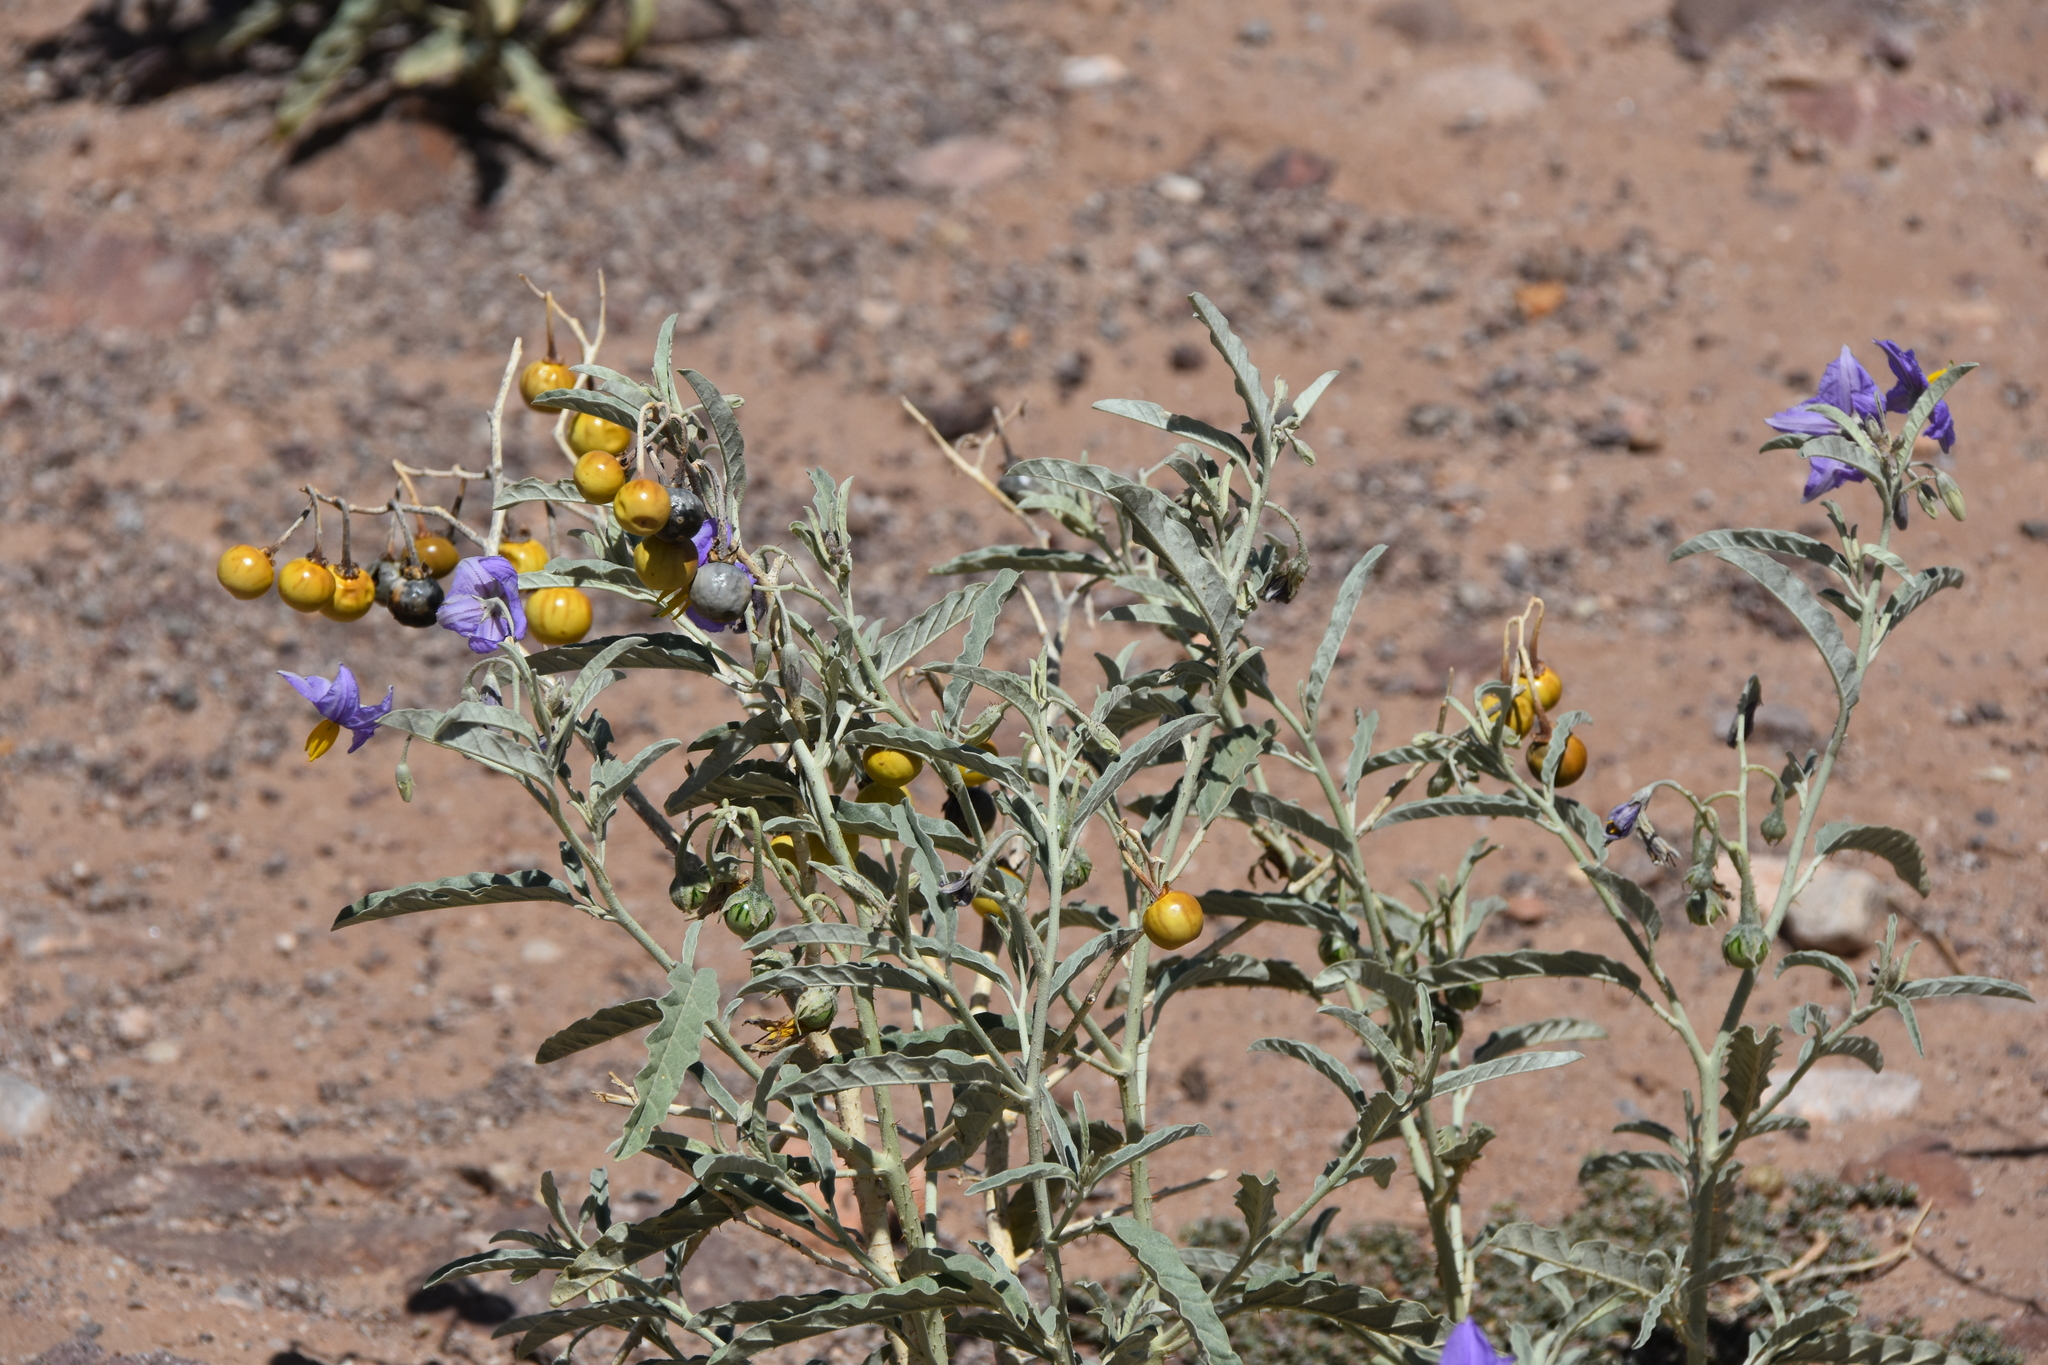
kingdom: Plantae
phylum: Tracheophyta
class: Magnoliopsida
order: Solanales
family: Solanaceae
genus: Solanum
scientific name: Solanum elaeagnifolium
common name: Silverleaf nightshade
